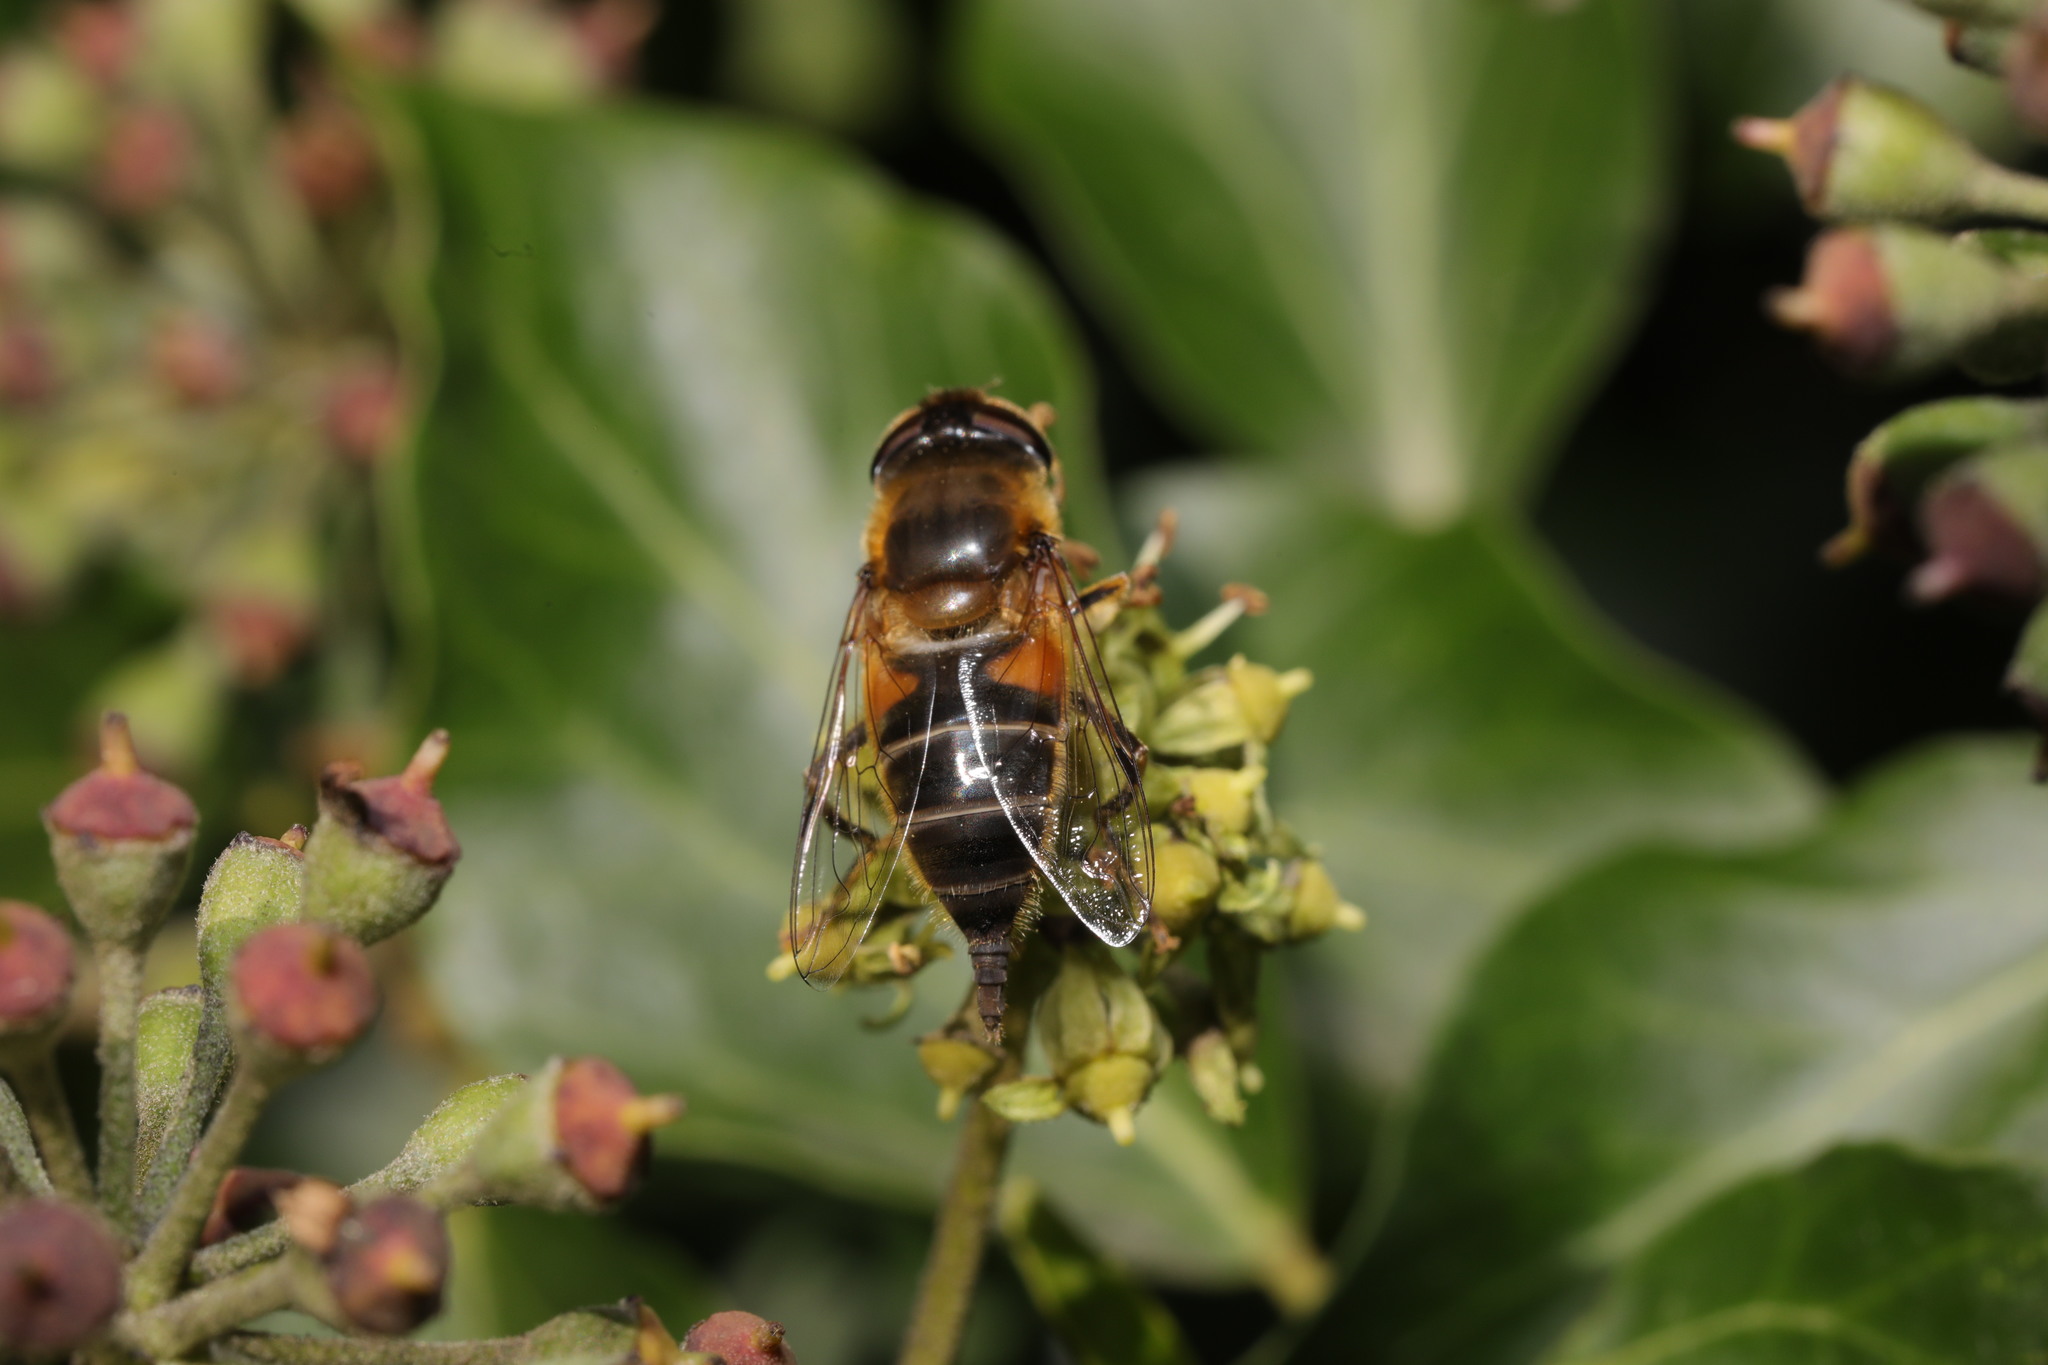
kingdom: Animalia
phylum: Arthropoda
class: Insecta
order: Diptera
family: Syrphidae
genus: Eristalis
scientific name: Eristalis pertinax
